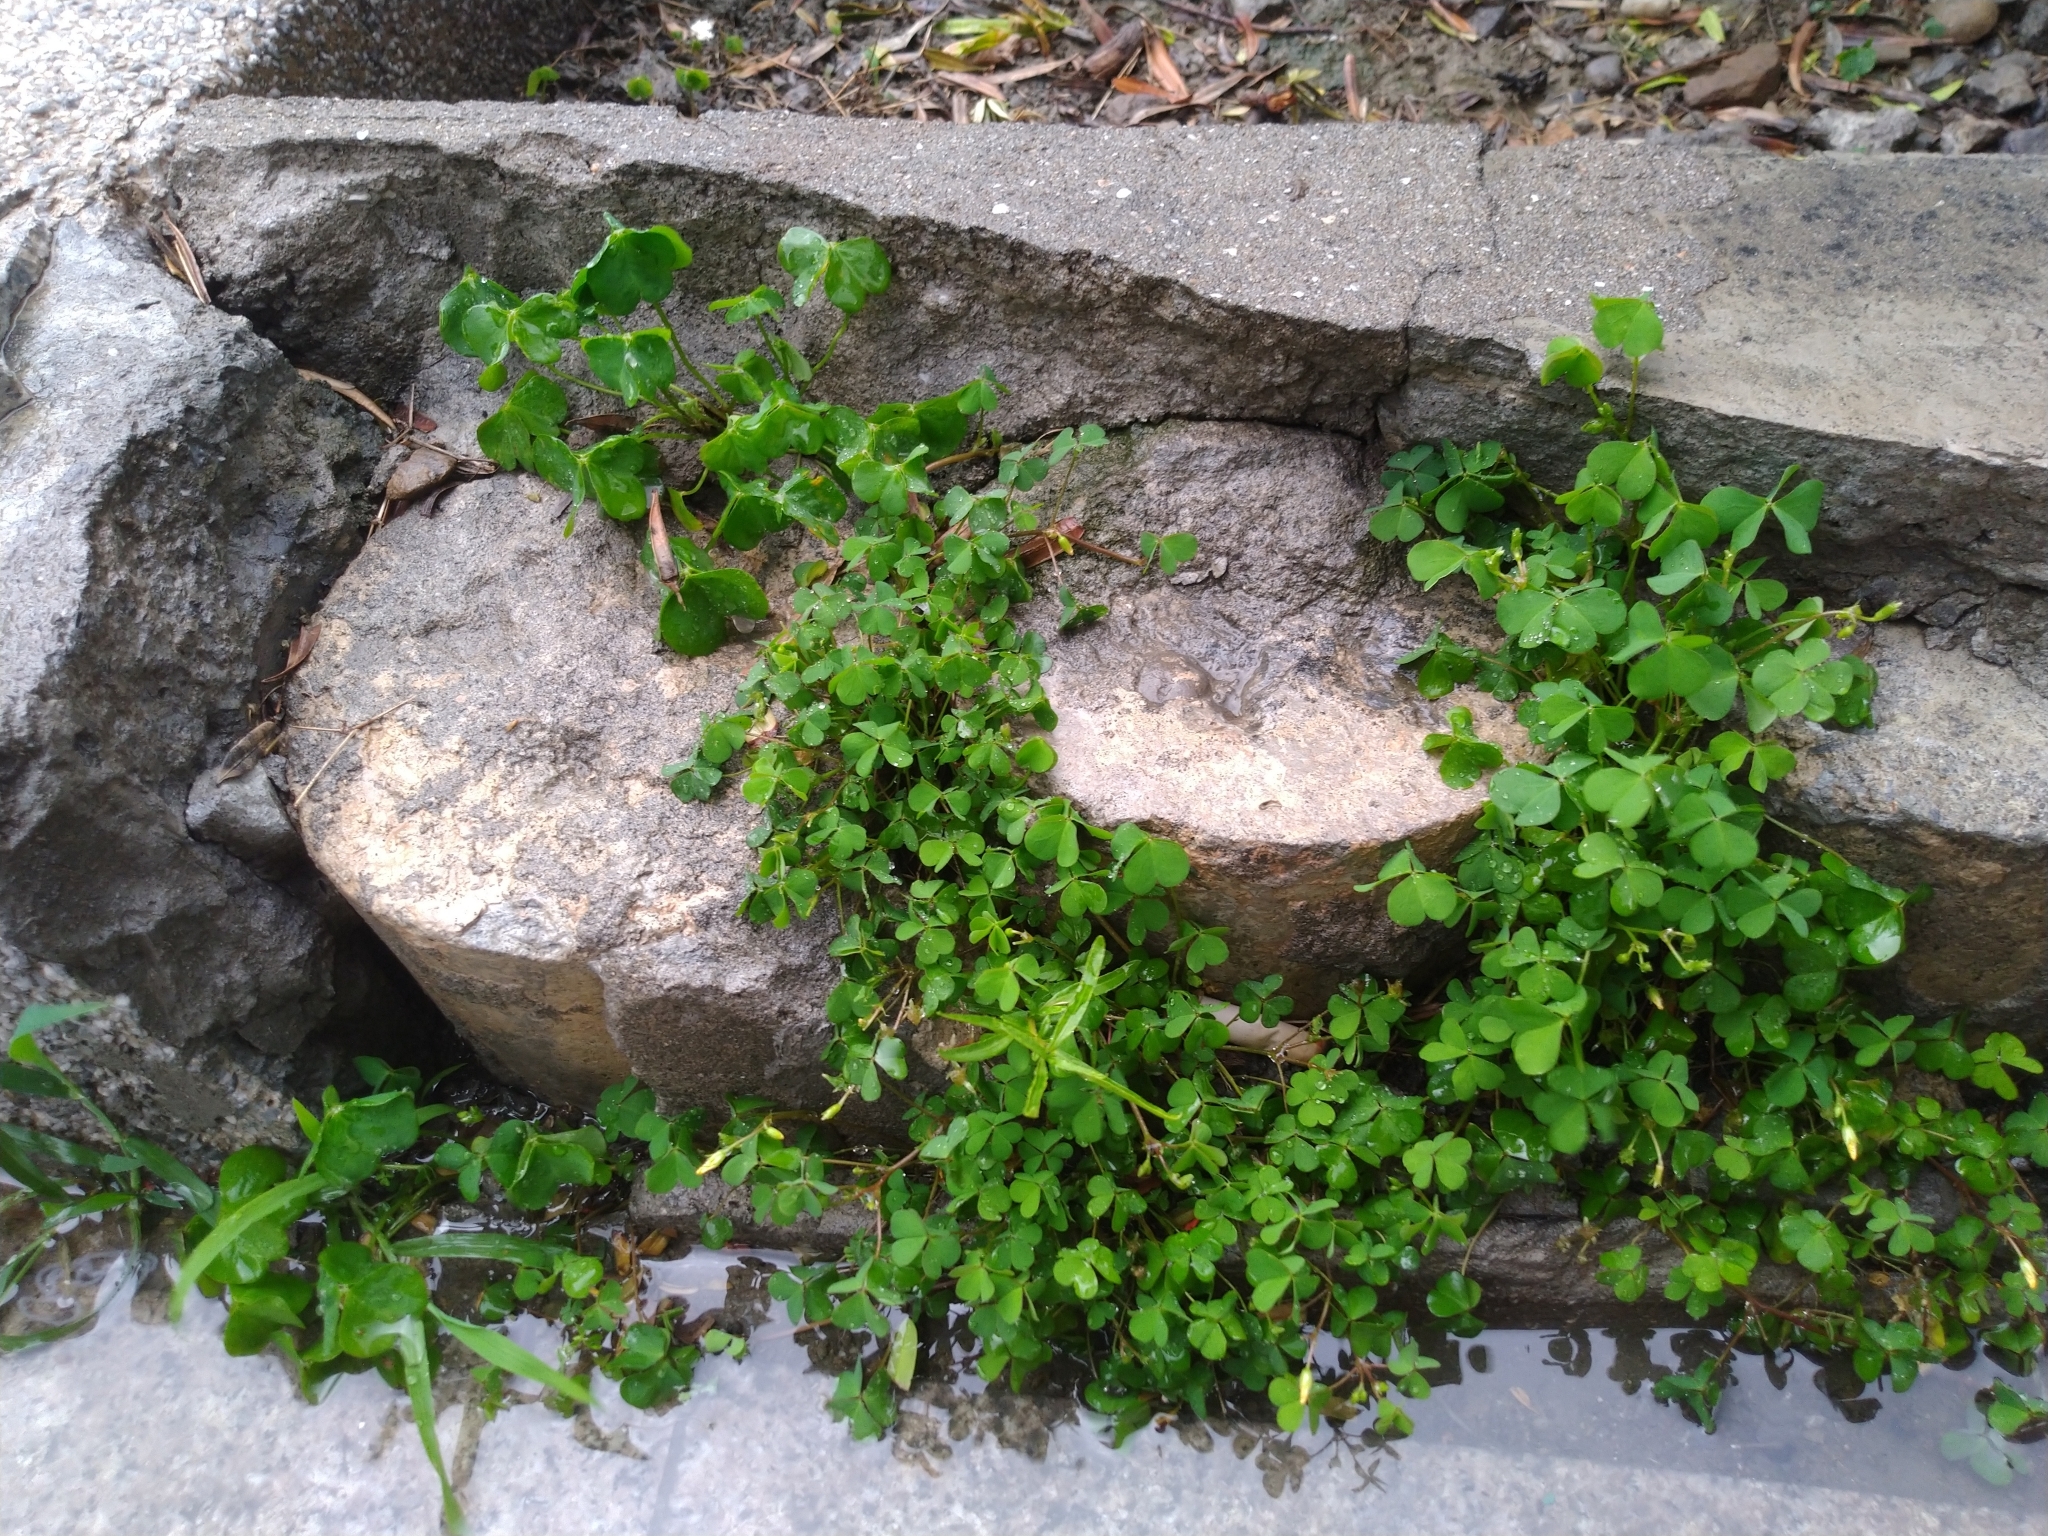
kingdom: Plantae
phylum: Tracheophyta
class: Magnoliopsida
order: Oxalidales
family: Oxalidaceae
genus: Oxalis
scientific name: Oxalis corniculata
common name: Procumbent yellow-sorrel
